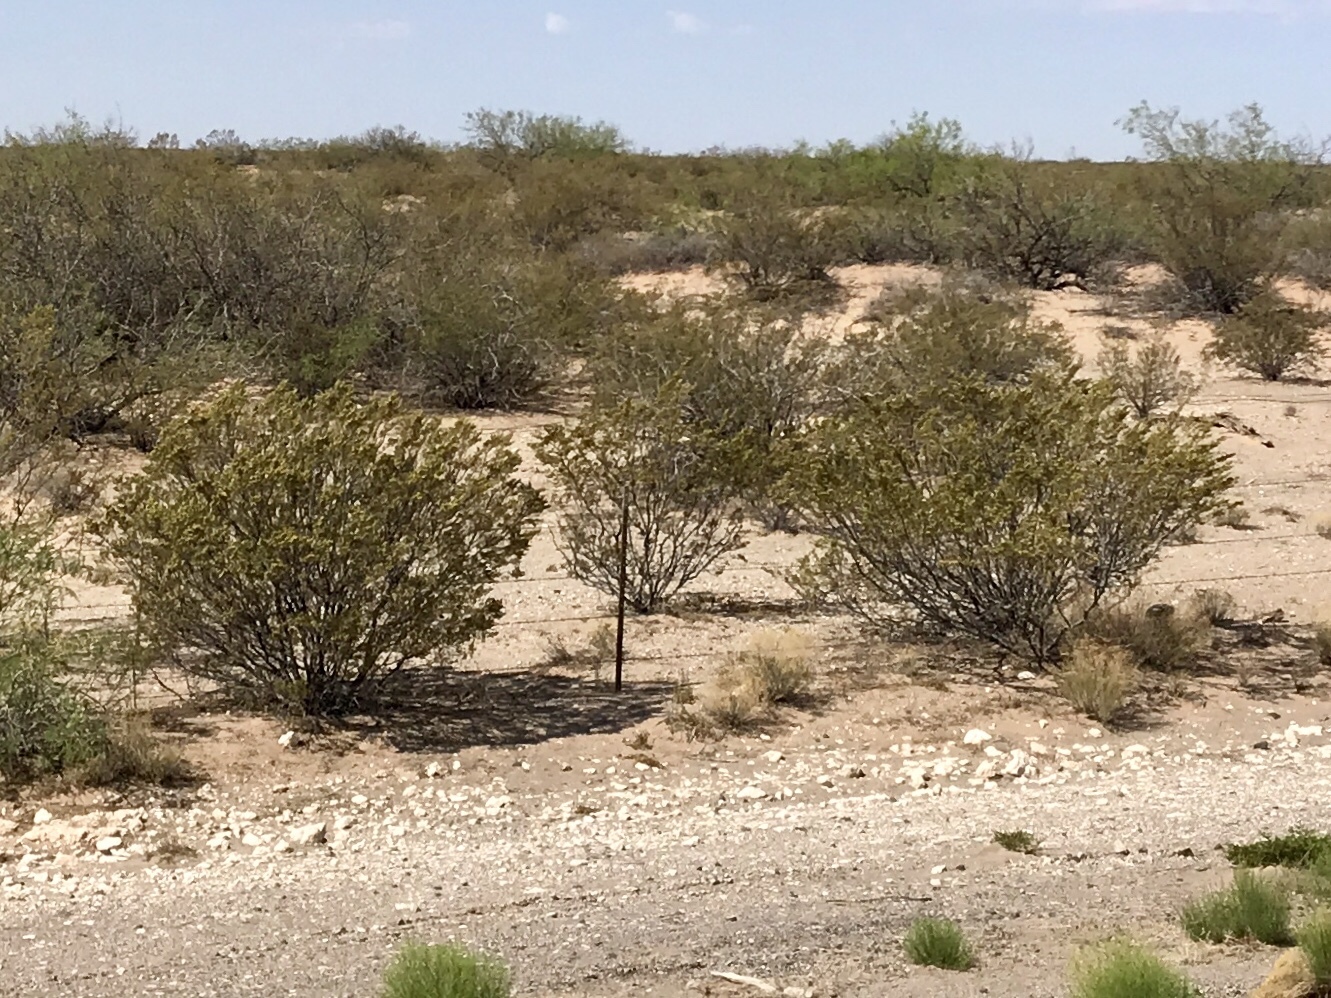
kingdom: Plantae
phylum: Tracheophyta
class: Magnoliopsida
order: Zygophyllales
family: Zygophyllaceae
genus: Larrea
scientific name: Larrea tridentata
